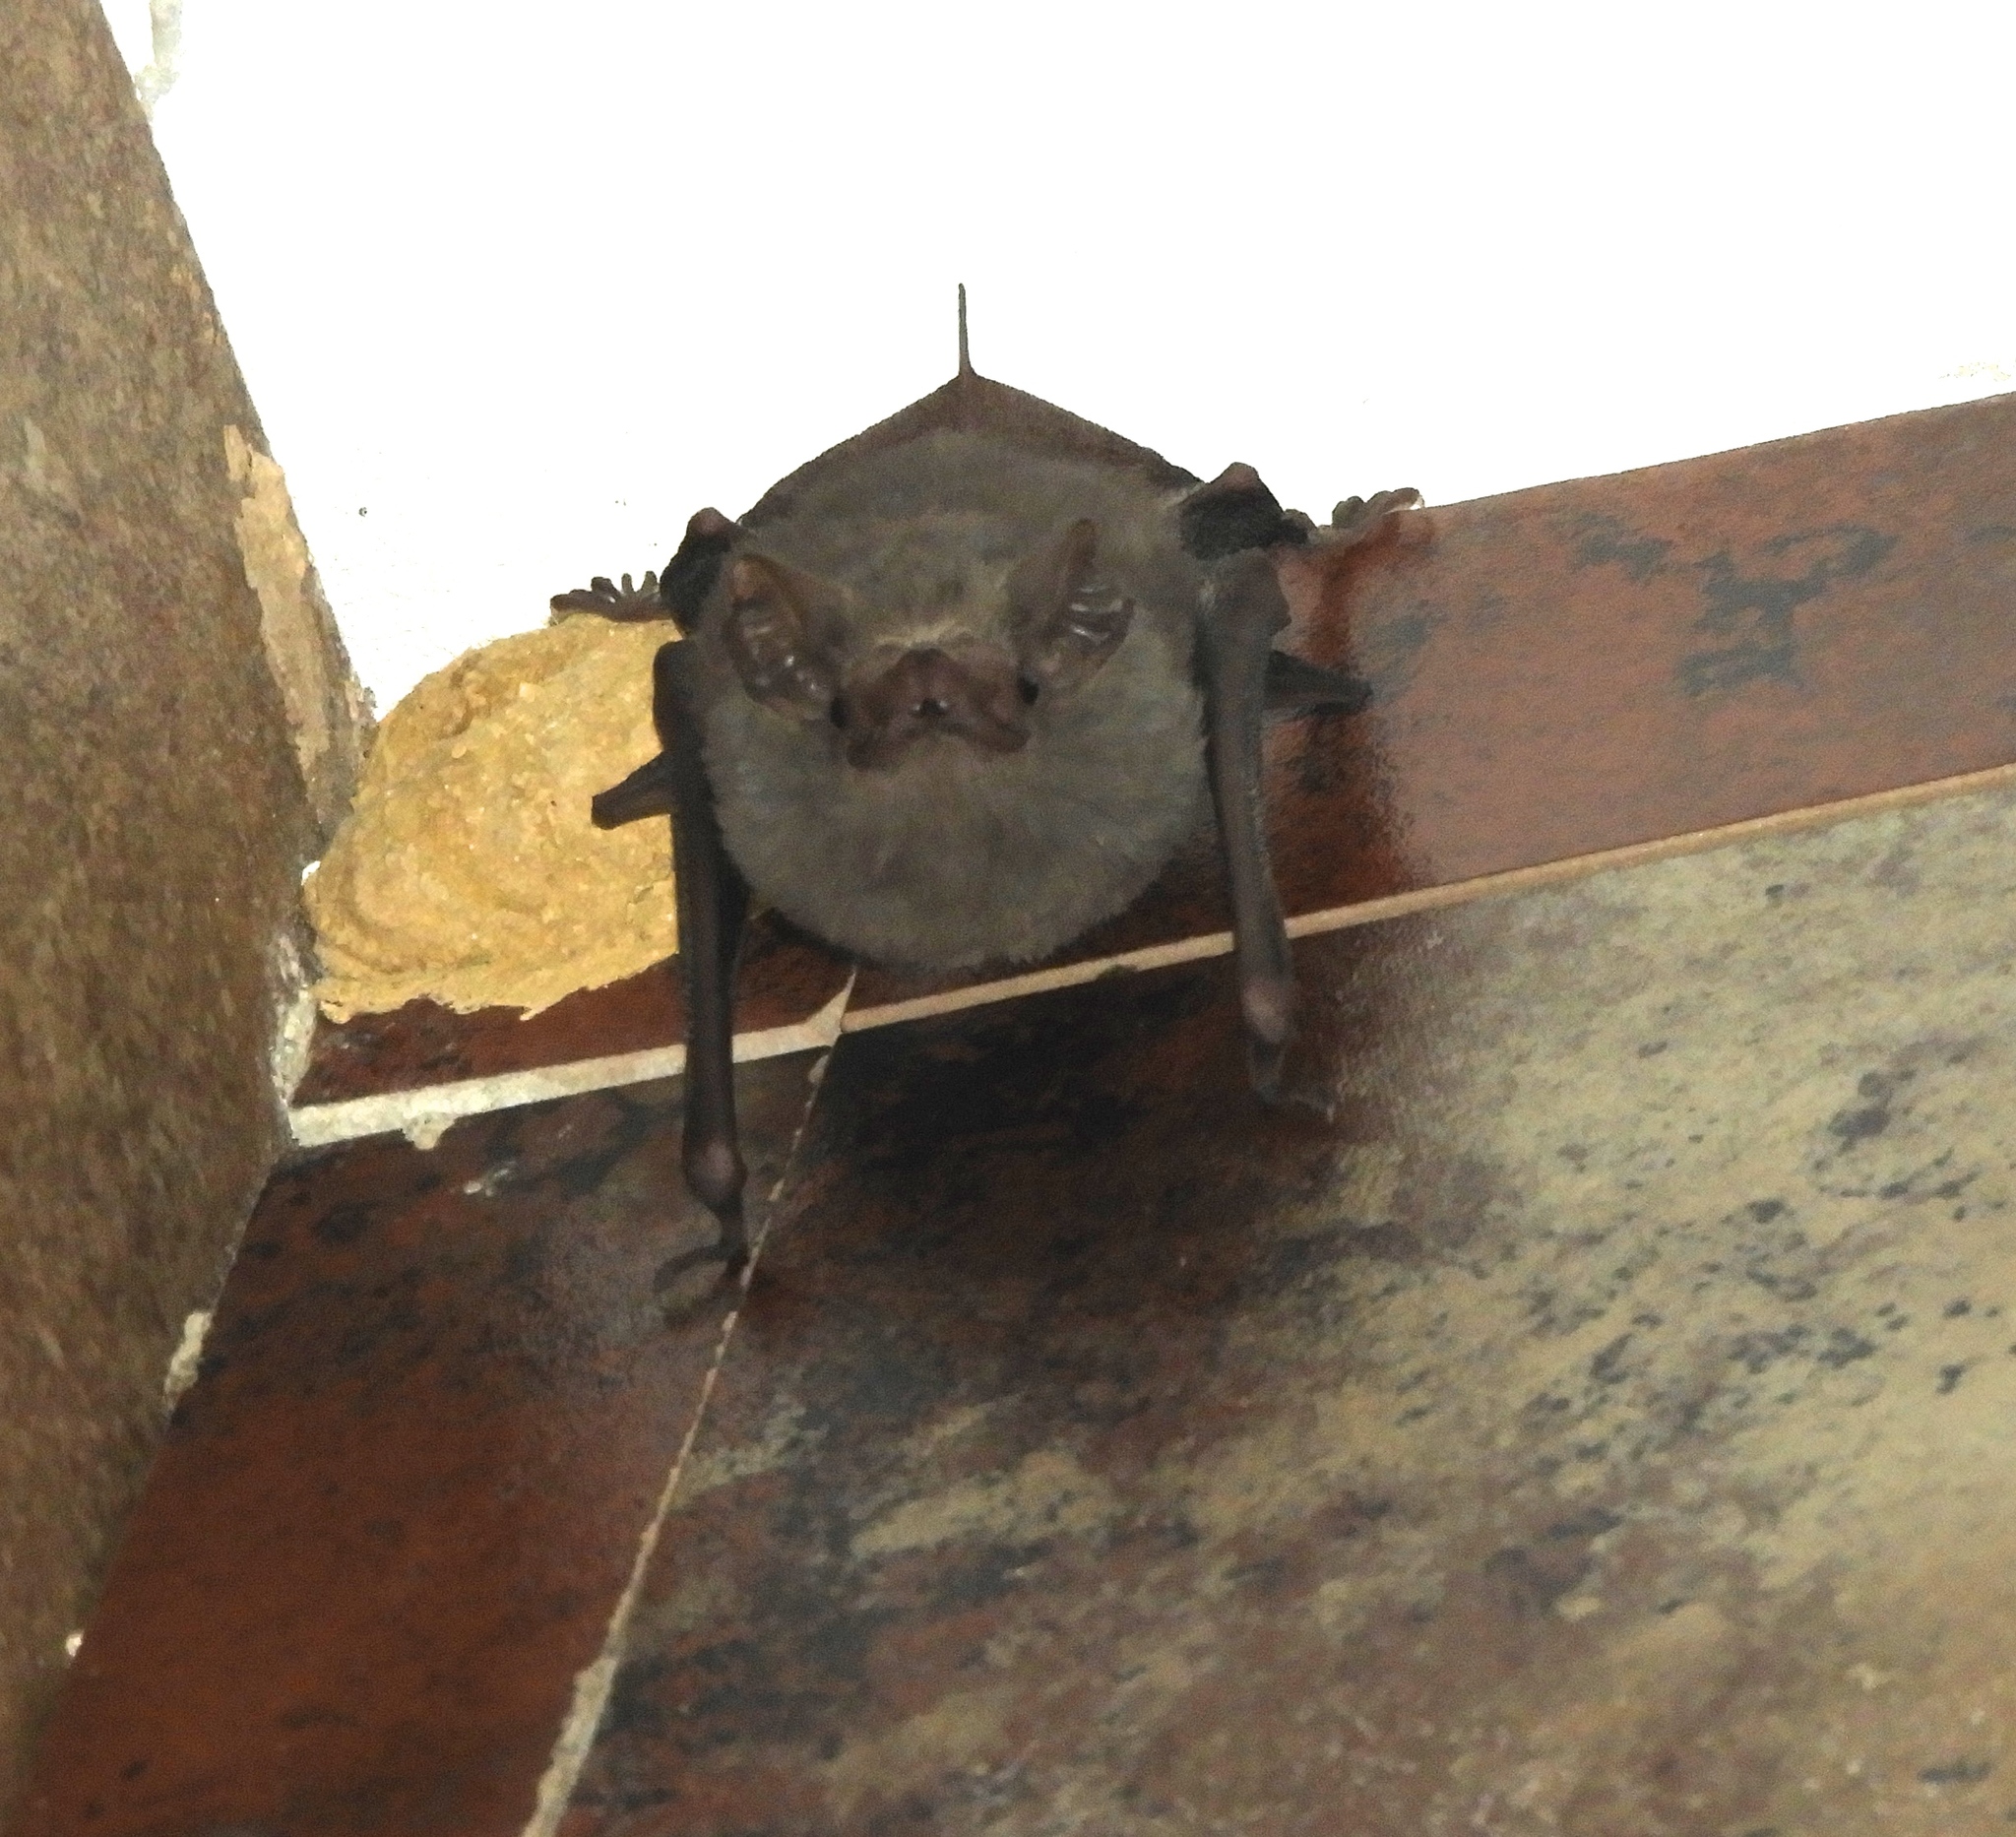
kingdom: Animalia
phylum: Chordata
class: Mammalia
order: Chiroptera
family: Emballonuridae
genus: Balantiopteryx
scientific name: Balantiopteryx plicata
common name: Gray sac-winged bat
